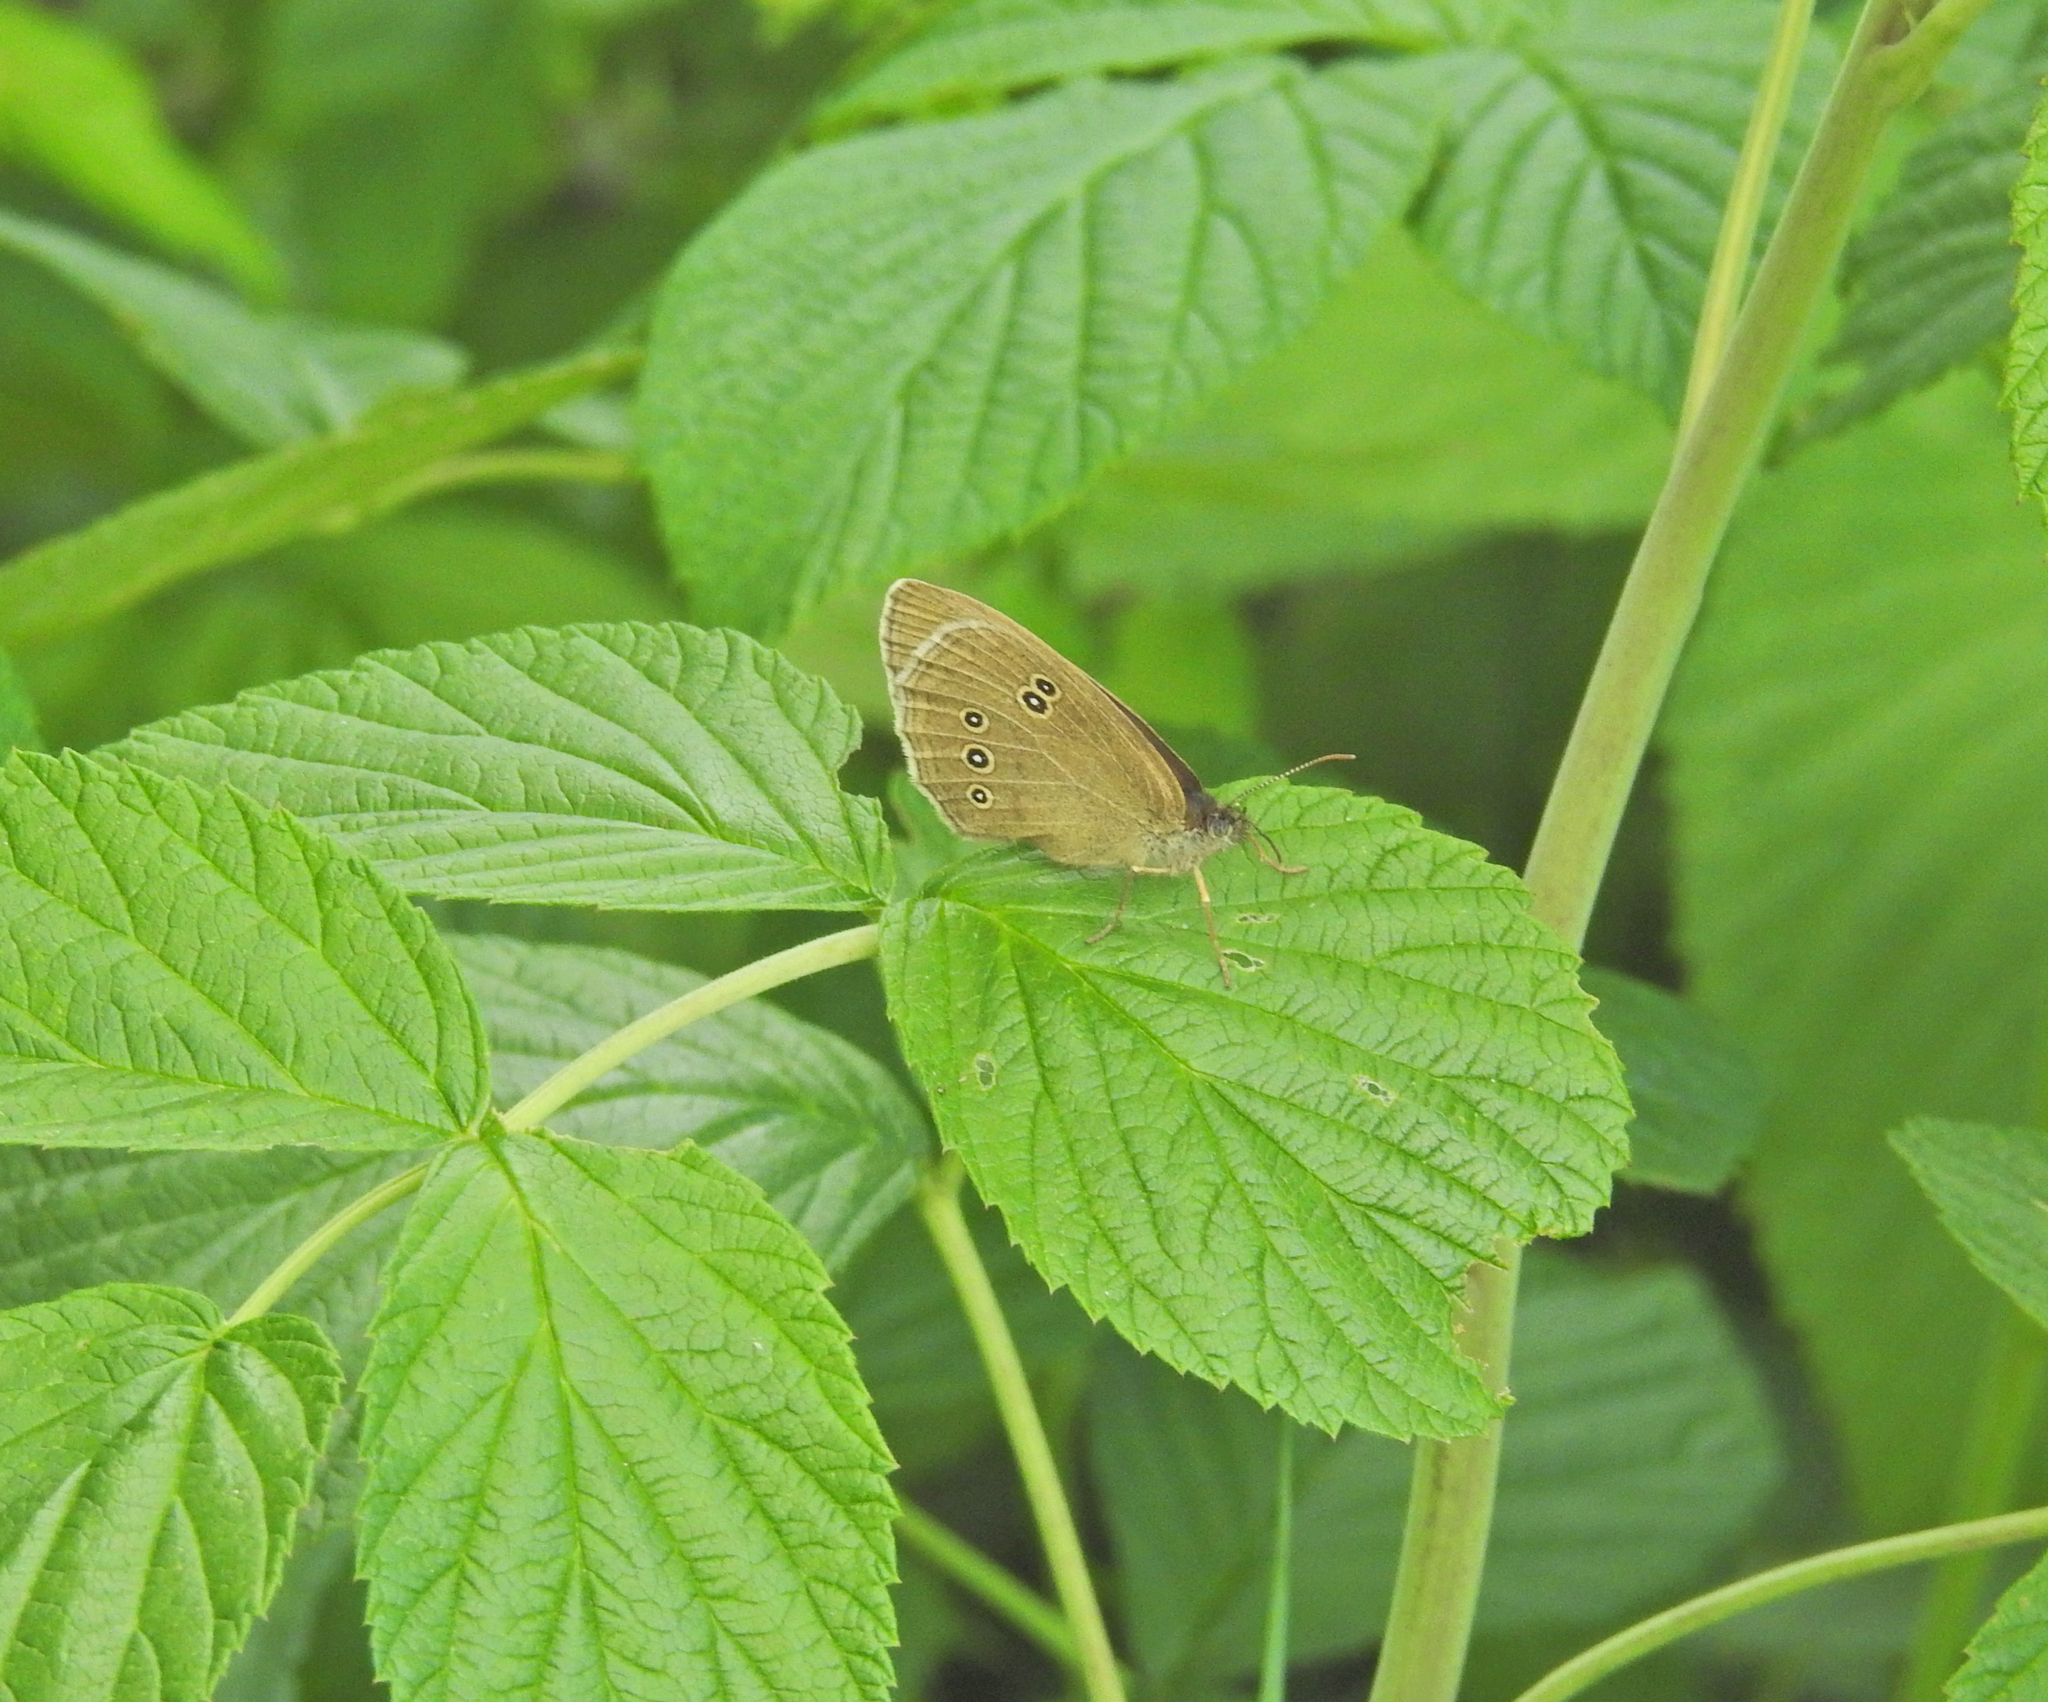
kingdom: Animalia
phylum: Arthropoda
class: Insecta
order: Lepidoptera
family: Nymphalidae
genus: Aphantopus
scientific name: Aphantopus hyperantus
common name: Ringlet
